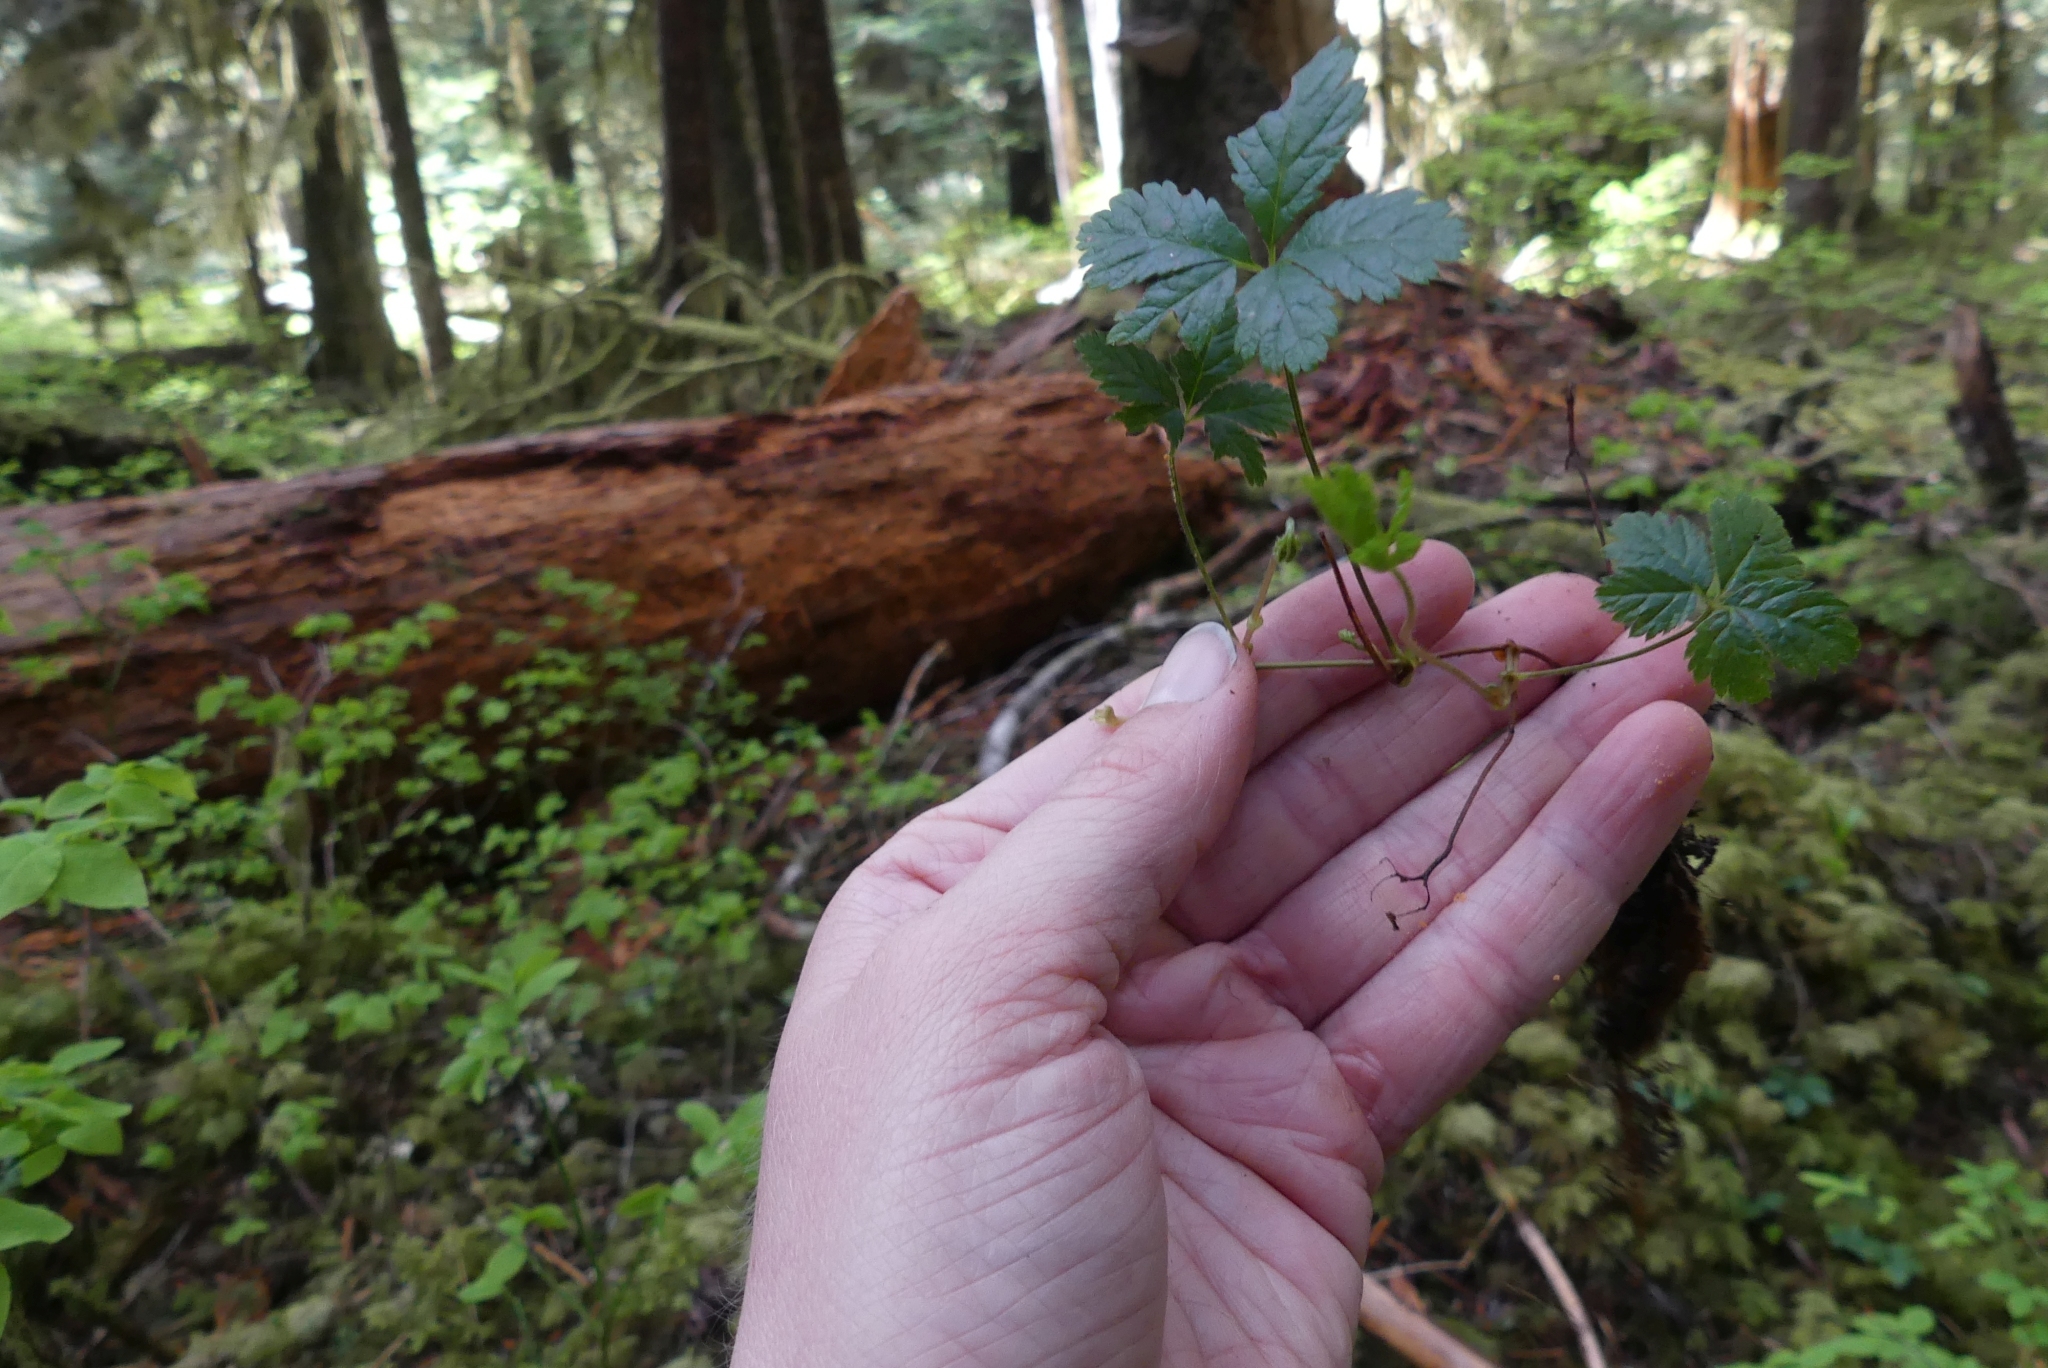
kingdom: Plantae
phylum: Tracheophyta
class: Magnoliopsida
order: Rosales
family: Rosaceae
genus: Rubus
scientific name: Rubus pedatus
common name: Creeping raspberry
